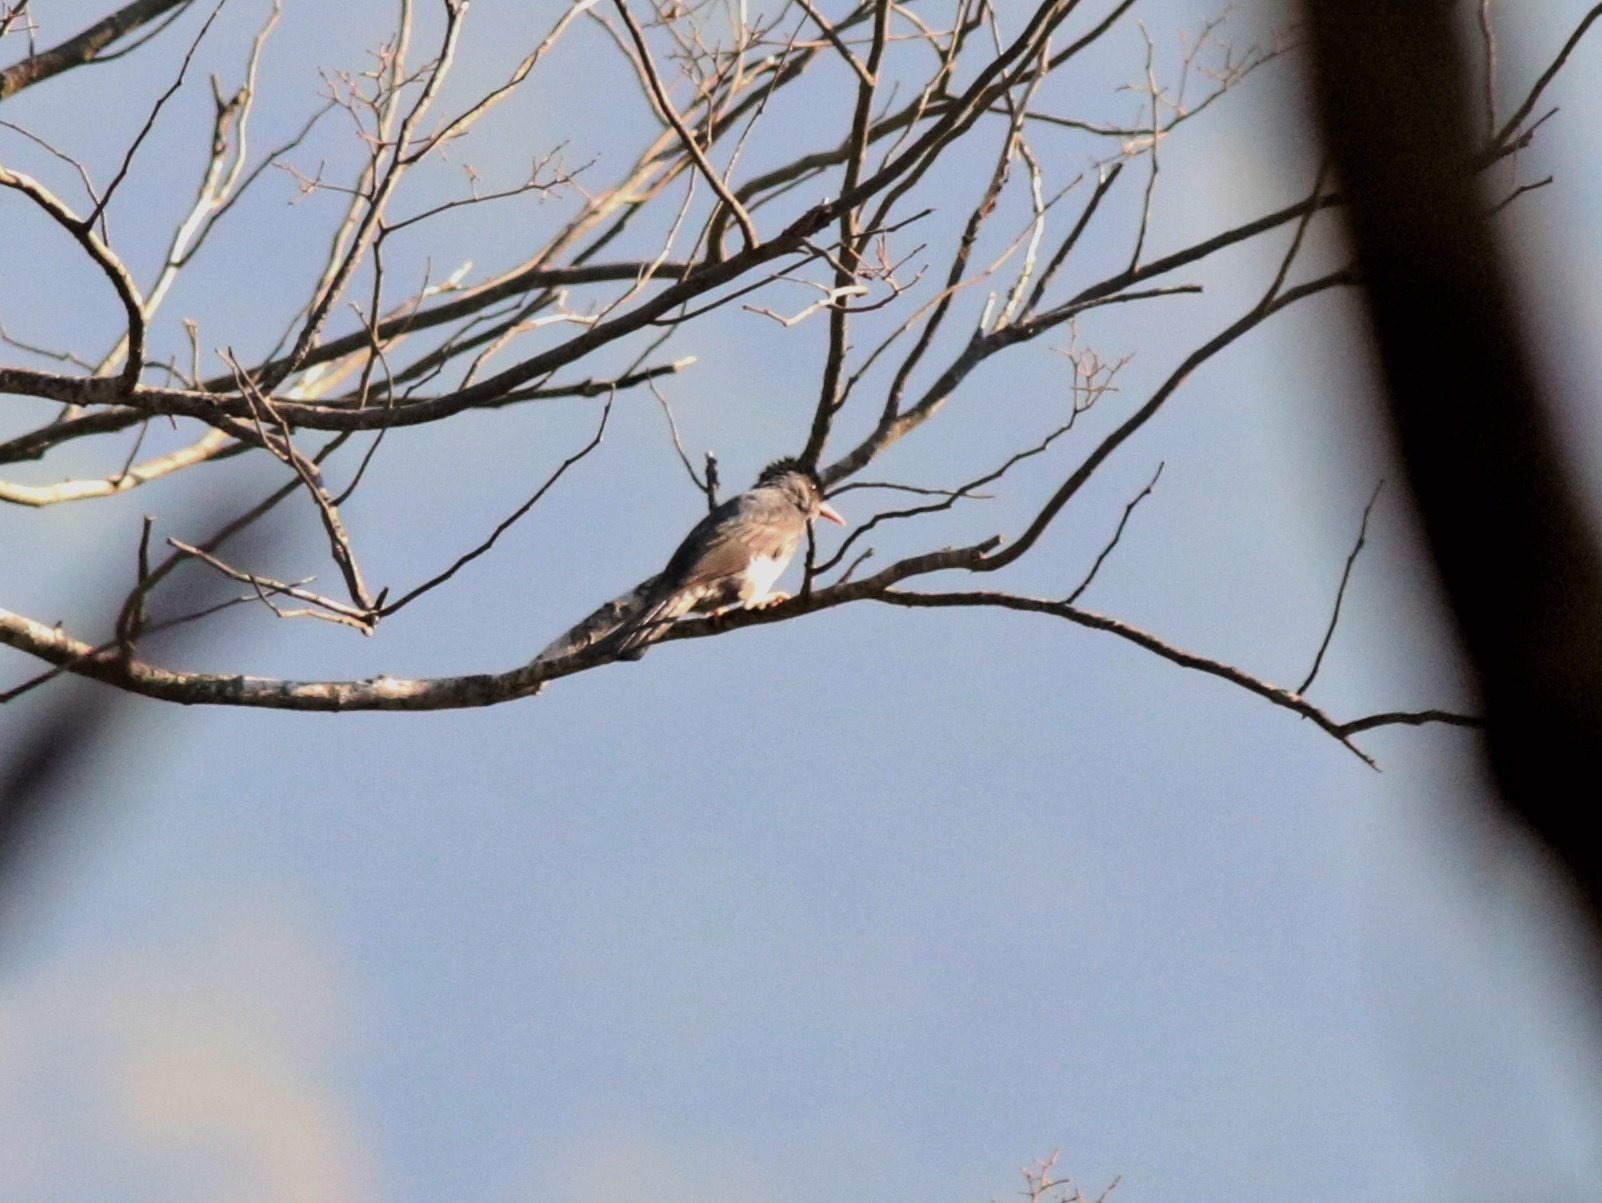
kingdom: Animalia
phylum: Chordata
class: Aves
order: Passeriformes
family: Pycnonotidae
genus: Hypsipetes
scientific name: Hypsipetes ganeesa
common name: Square-tailed bulbul
